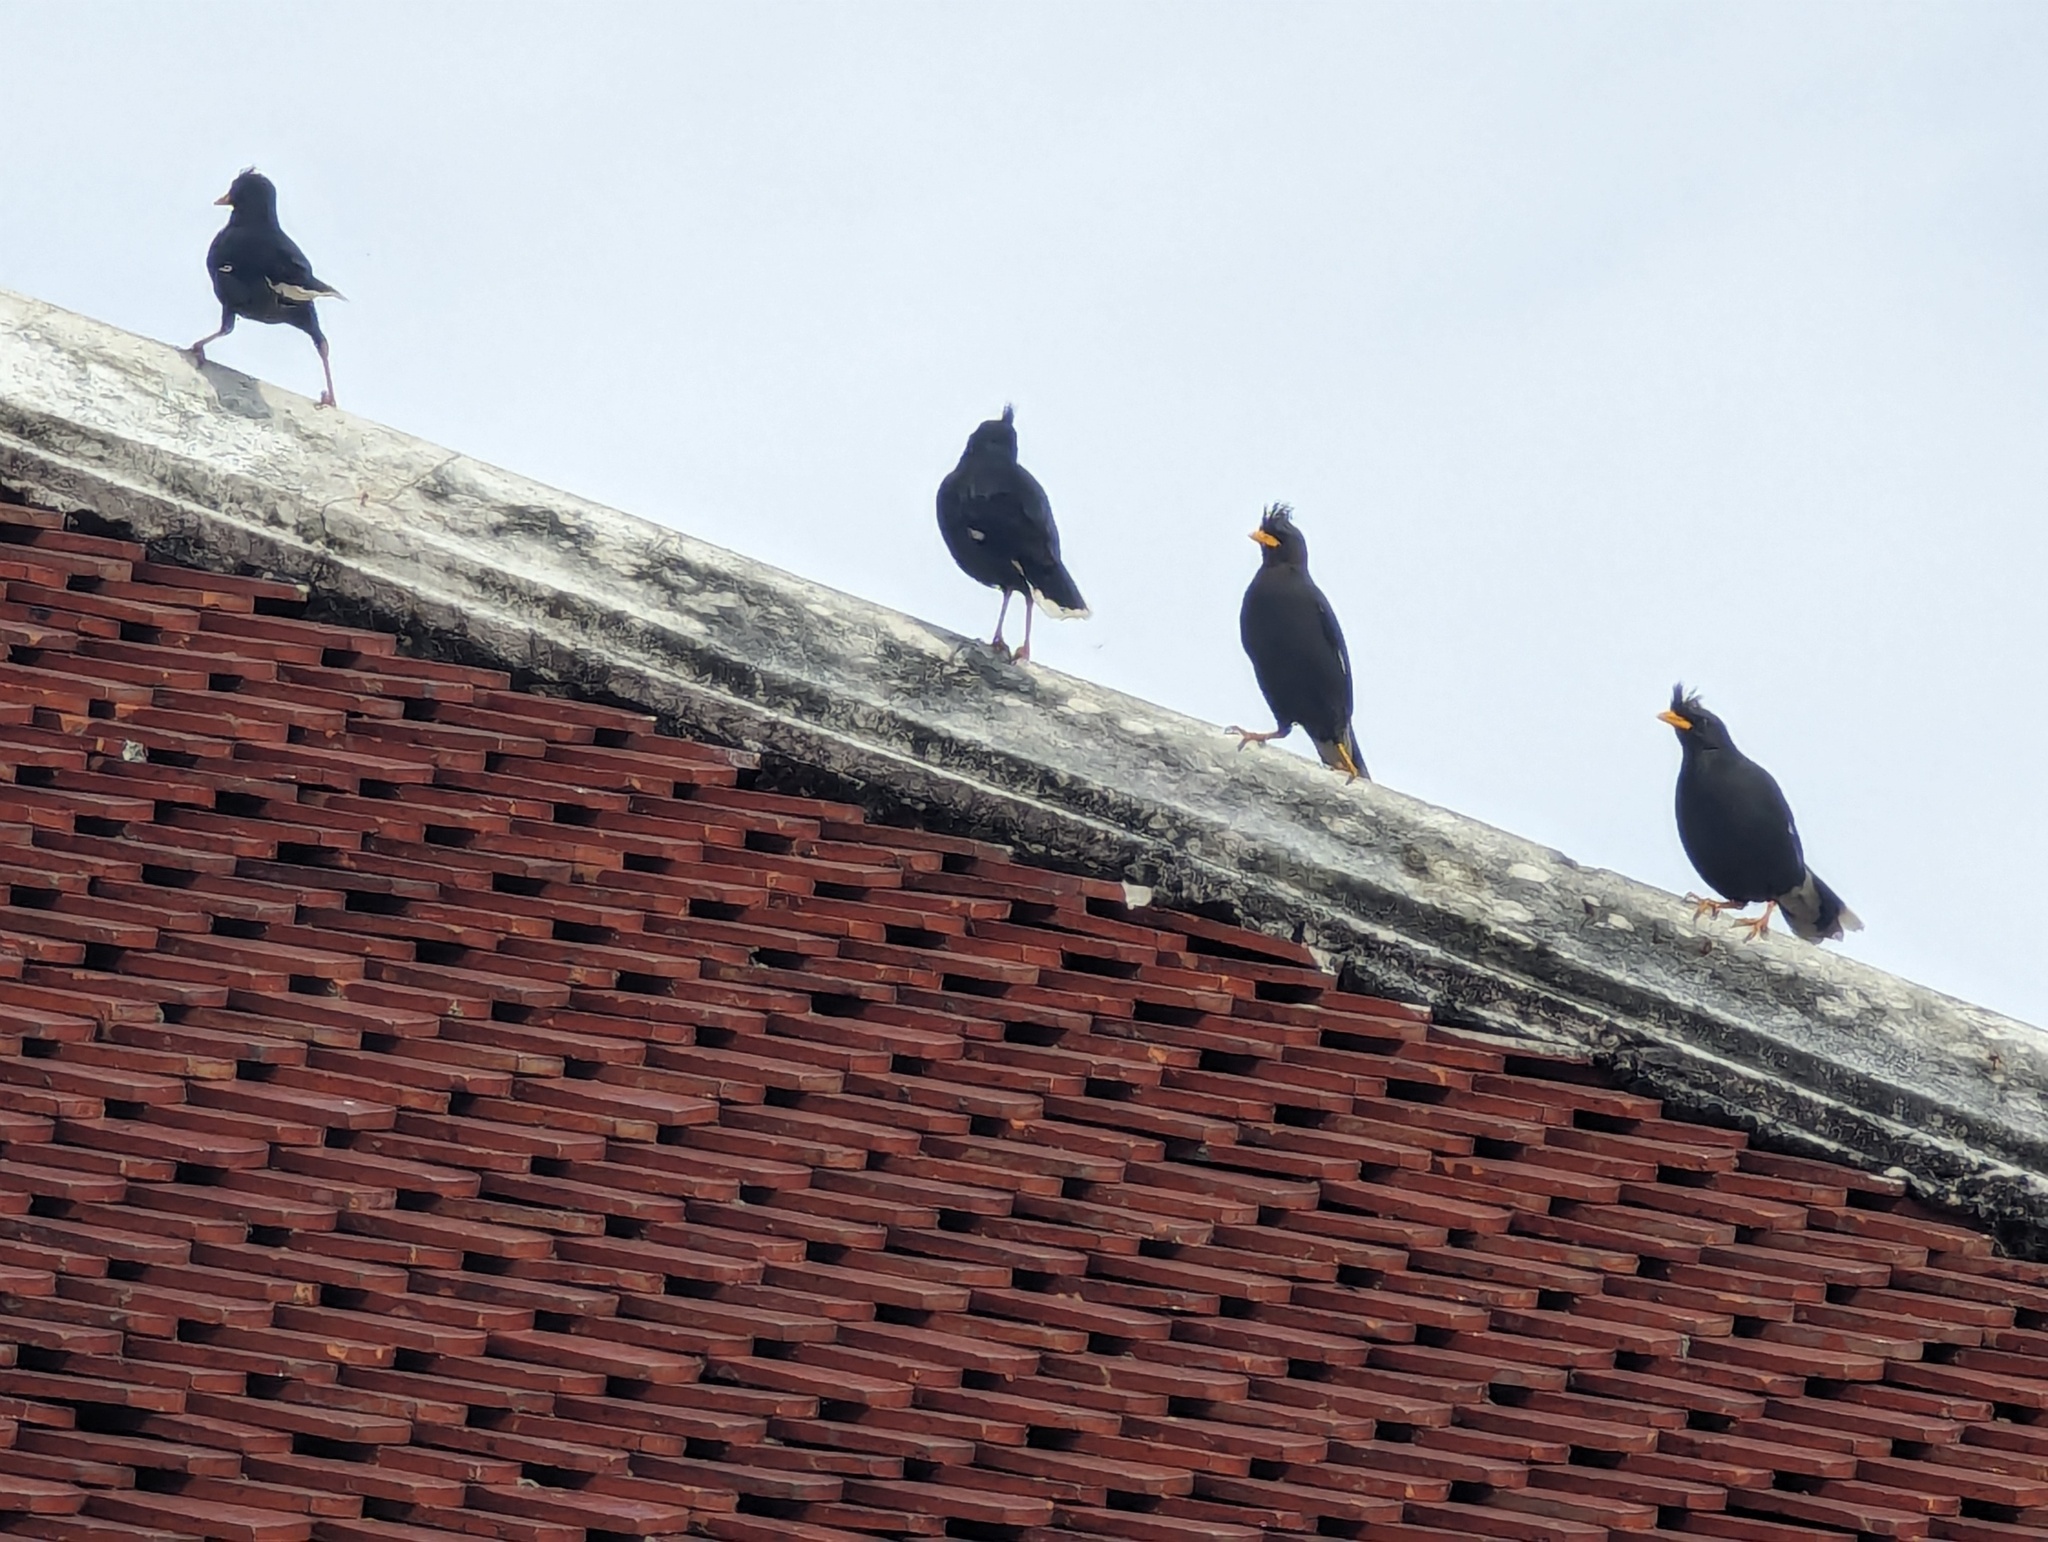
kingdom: Animalia
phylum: Chordata
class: Aves
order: Passeriformes
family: Sturnidae
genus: Acridotheres
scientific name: Acridotheres grandis
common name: Great myna
